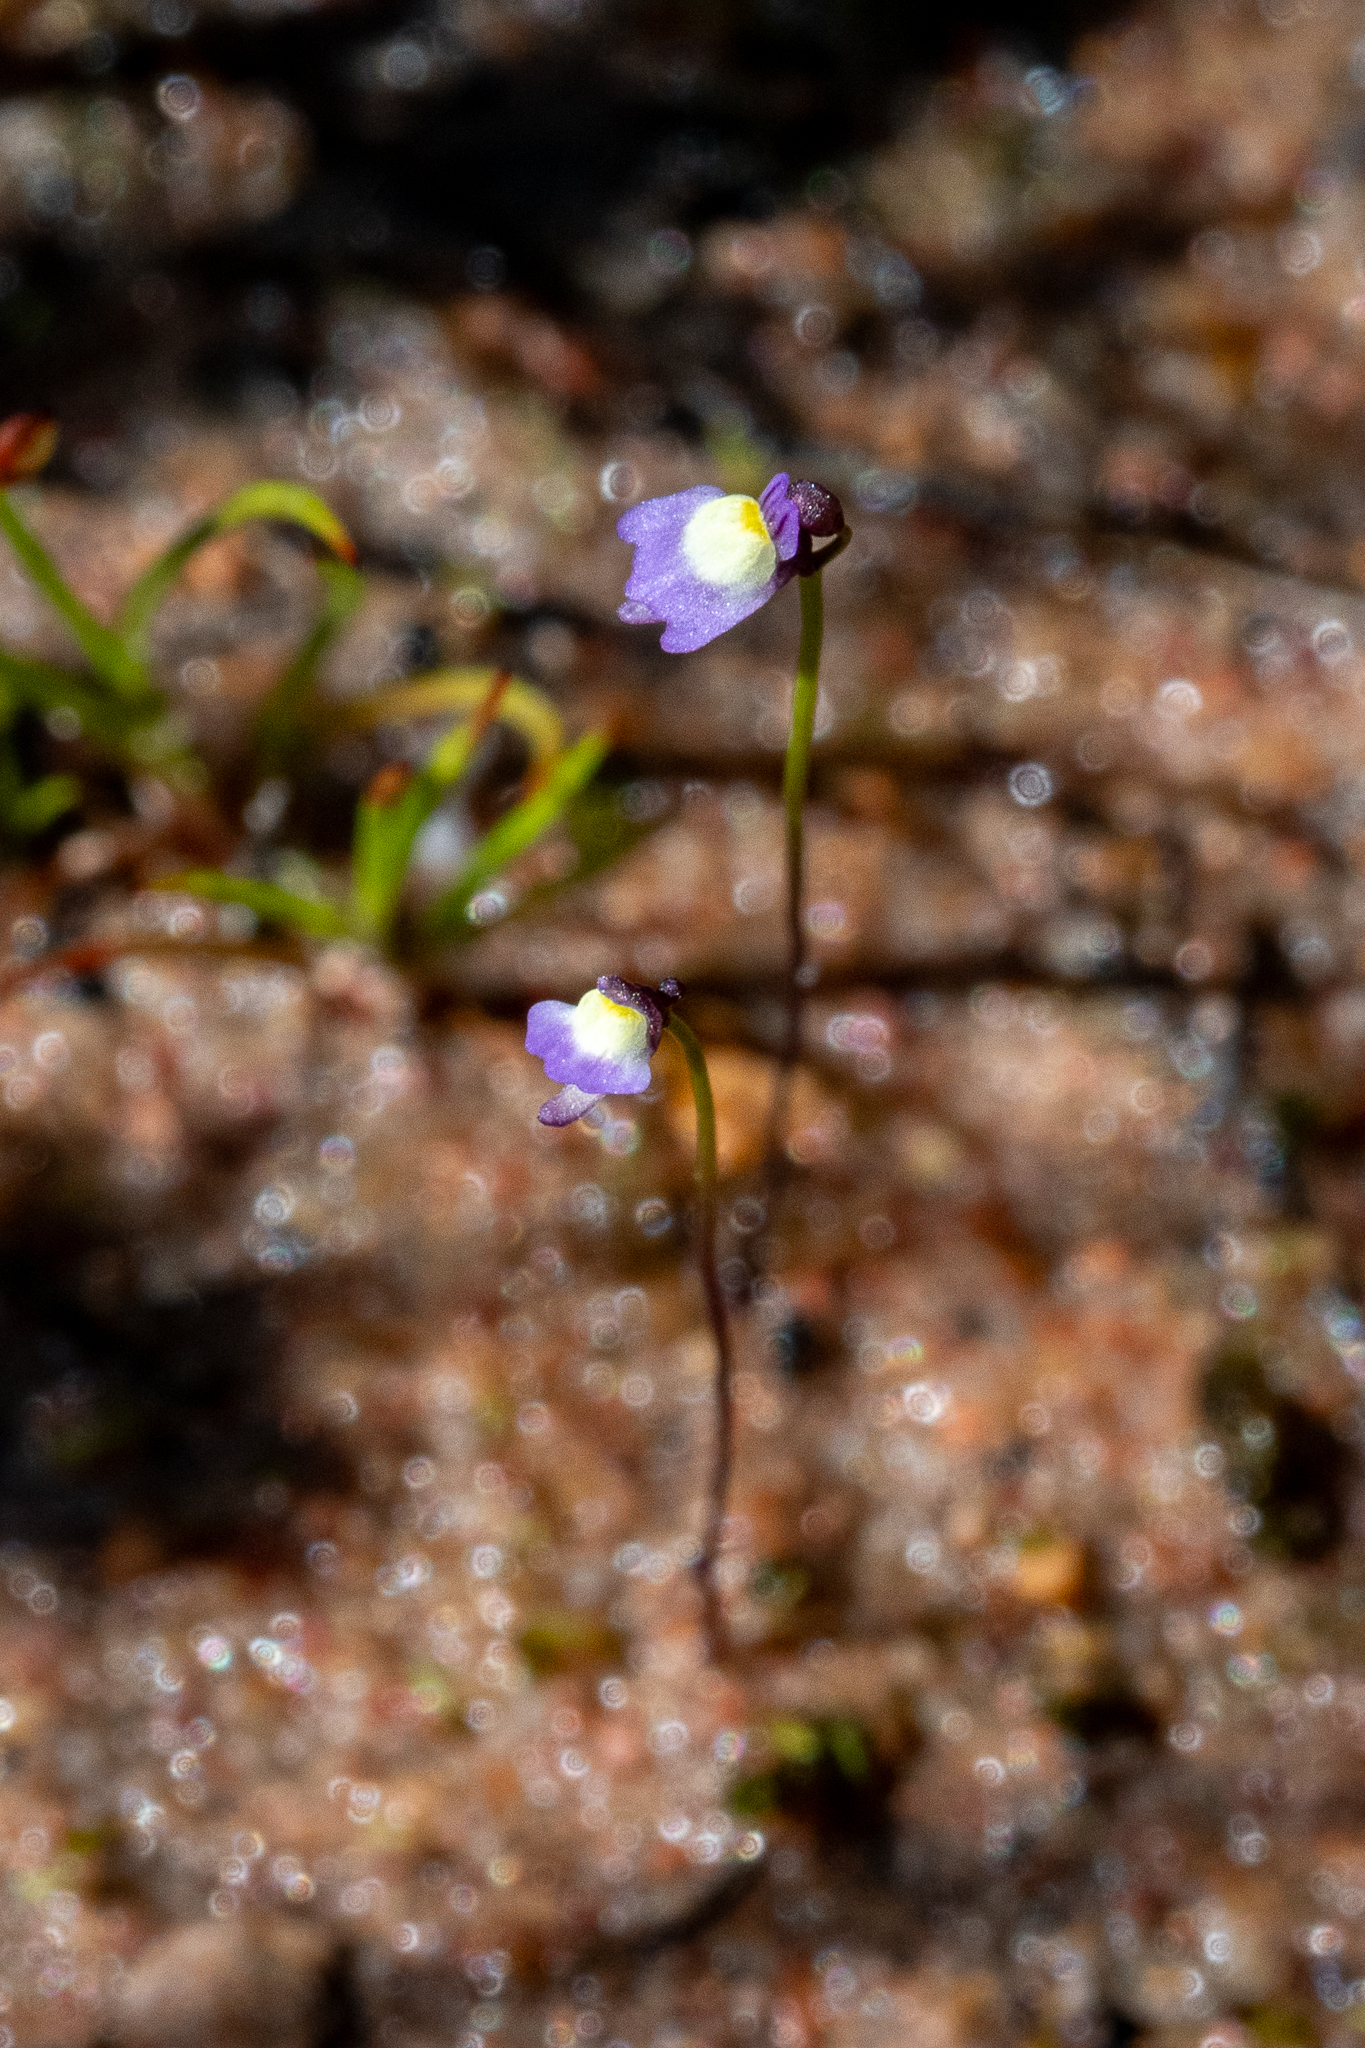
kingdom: Plantae
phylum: Tracheophyta
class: Magnoliopsida
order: Lamiales
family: Lentibulariaceae
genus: Utricularia
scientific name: Utricularia bisquamata
